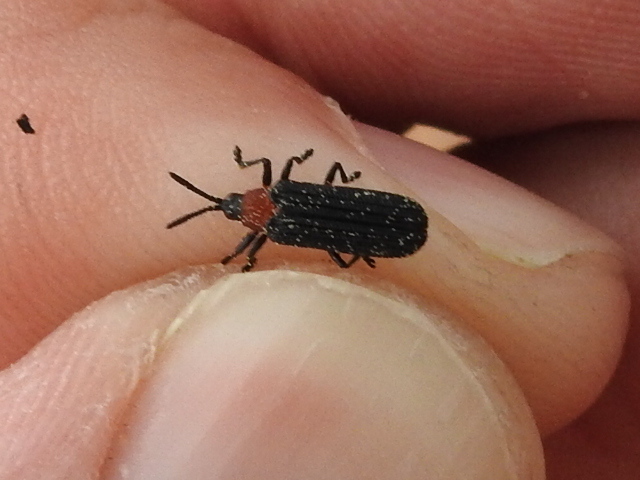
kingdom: Animalia
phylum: Arthropoda
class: Insecta
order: Coleoptera
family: Chrysomelidae
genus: Chalepus
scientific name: Chalepus bicolor
